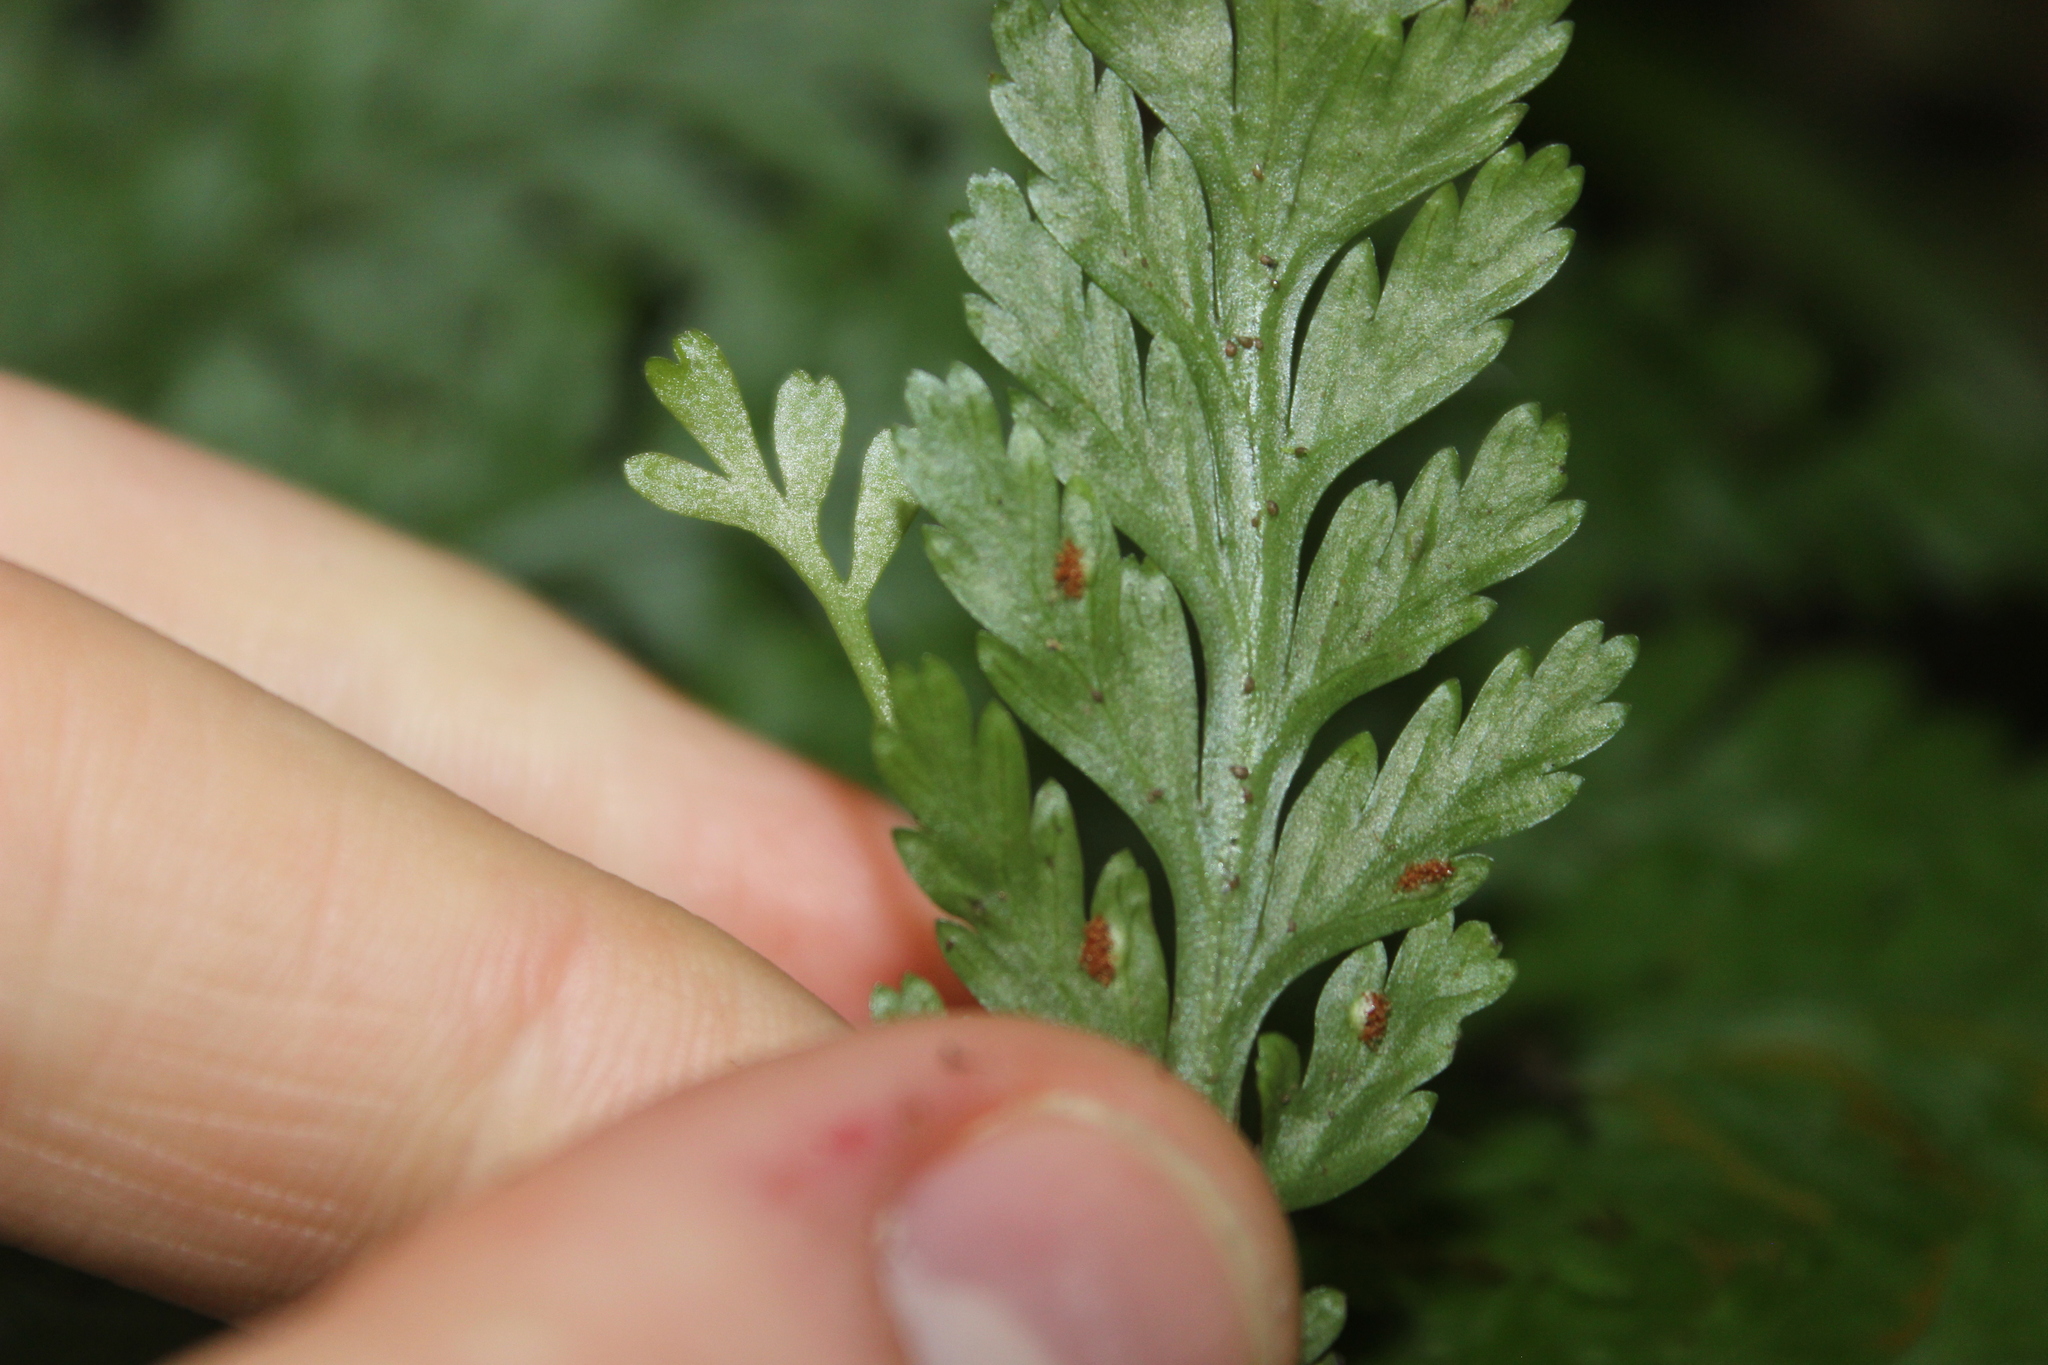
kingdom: Plantae
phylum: Tracheophyta
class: Polypodiopsida
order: Polypodiales
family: Aspleniaceae
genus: Asplenium
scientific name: Asplenium bulbiferum
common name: Mother fern
